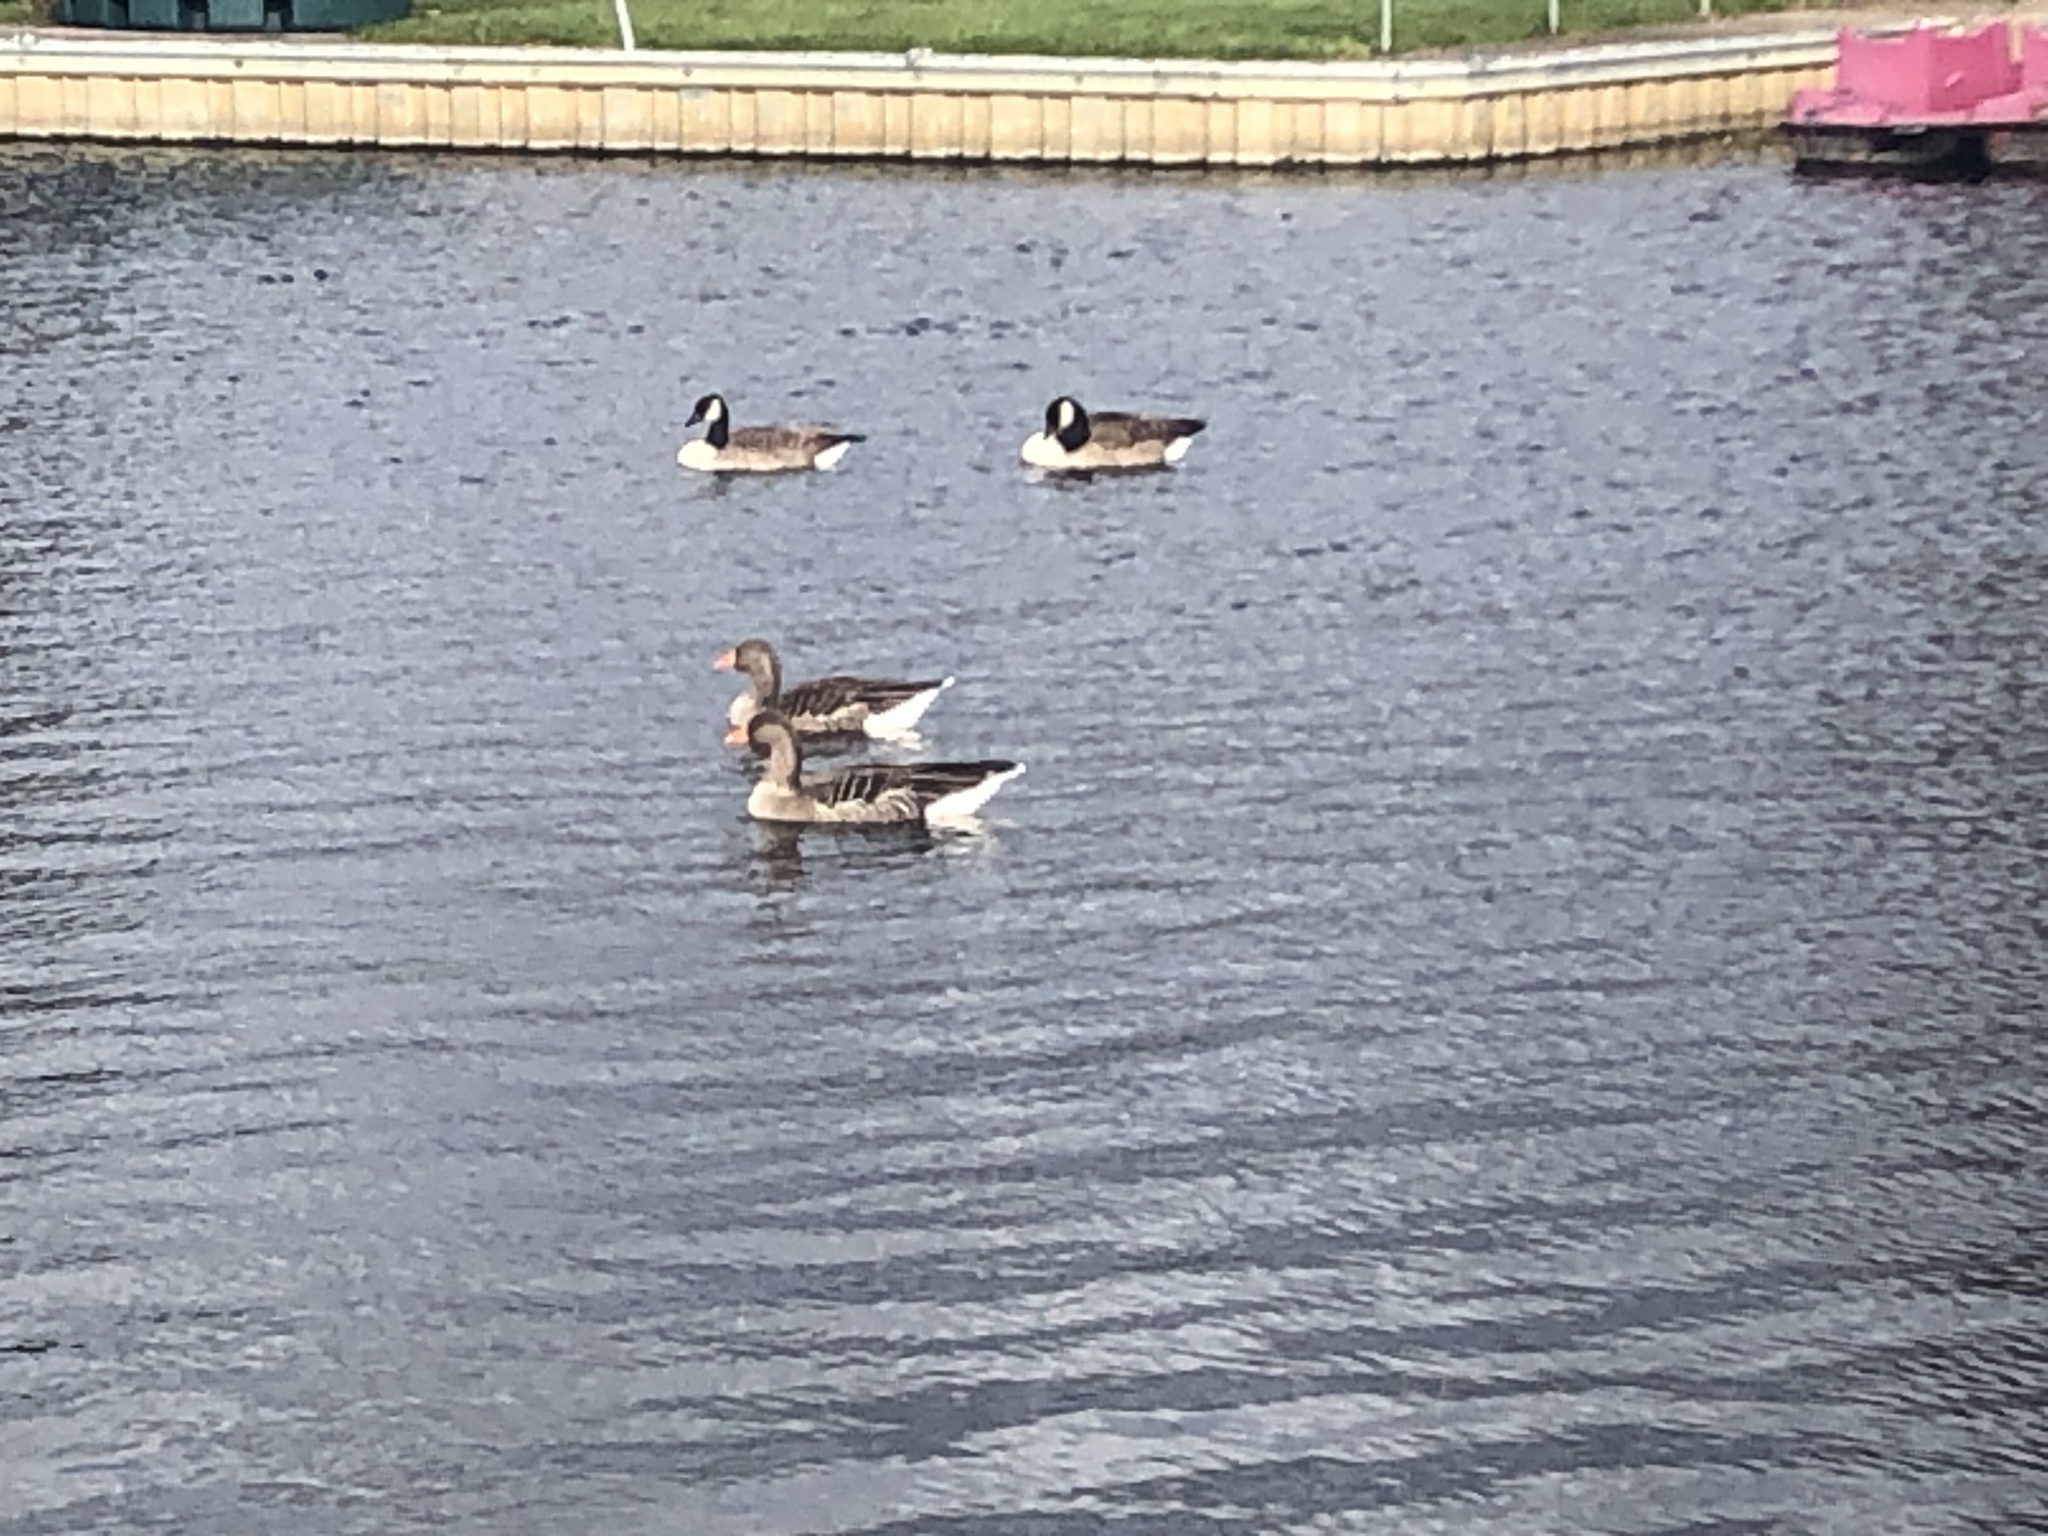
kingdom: Animalia
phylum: Chordata
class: Aves
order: Anseriformes
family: Anatidae
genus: Anser
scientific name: Anser anser
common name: Greylag goose
